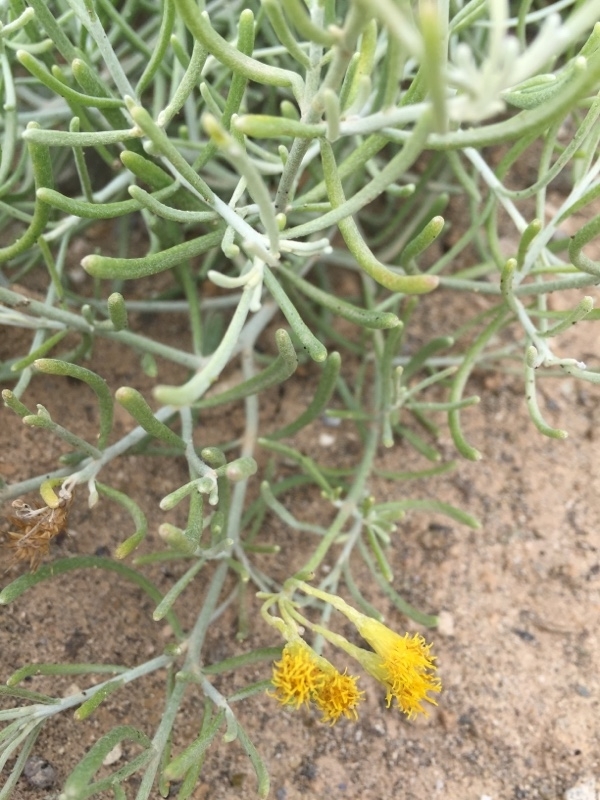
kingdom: Plantae
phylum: Tracheophyta
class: Magnoliopsida
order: Asterales
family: Asteraceae
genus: Schizogyne
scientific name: Schizogyne sericea
